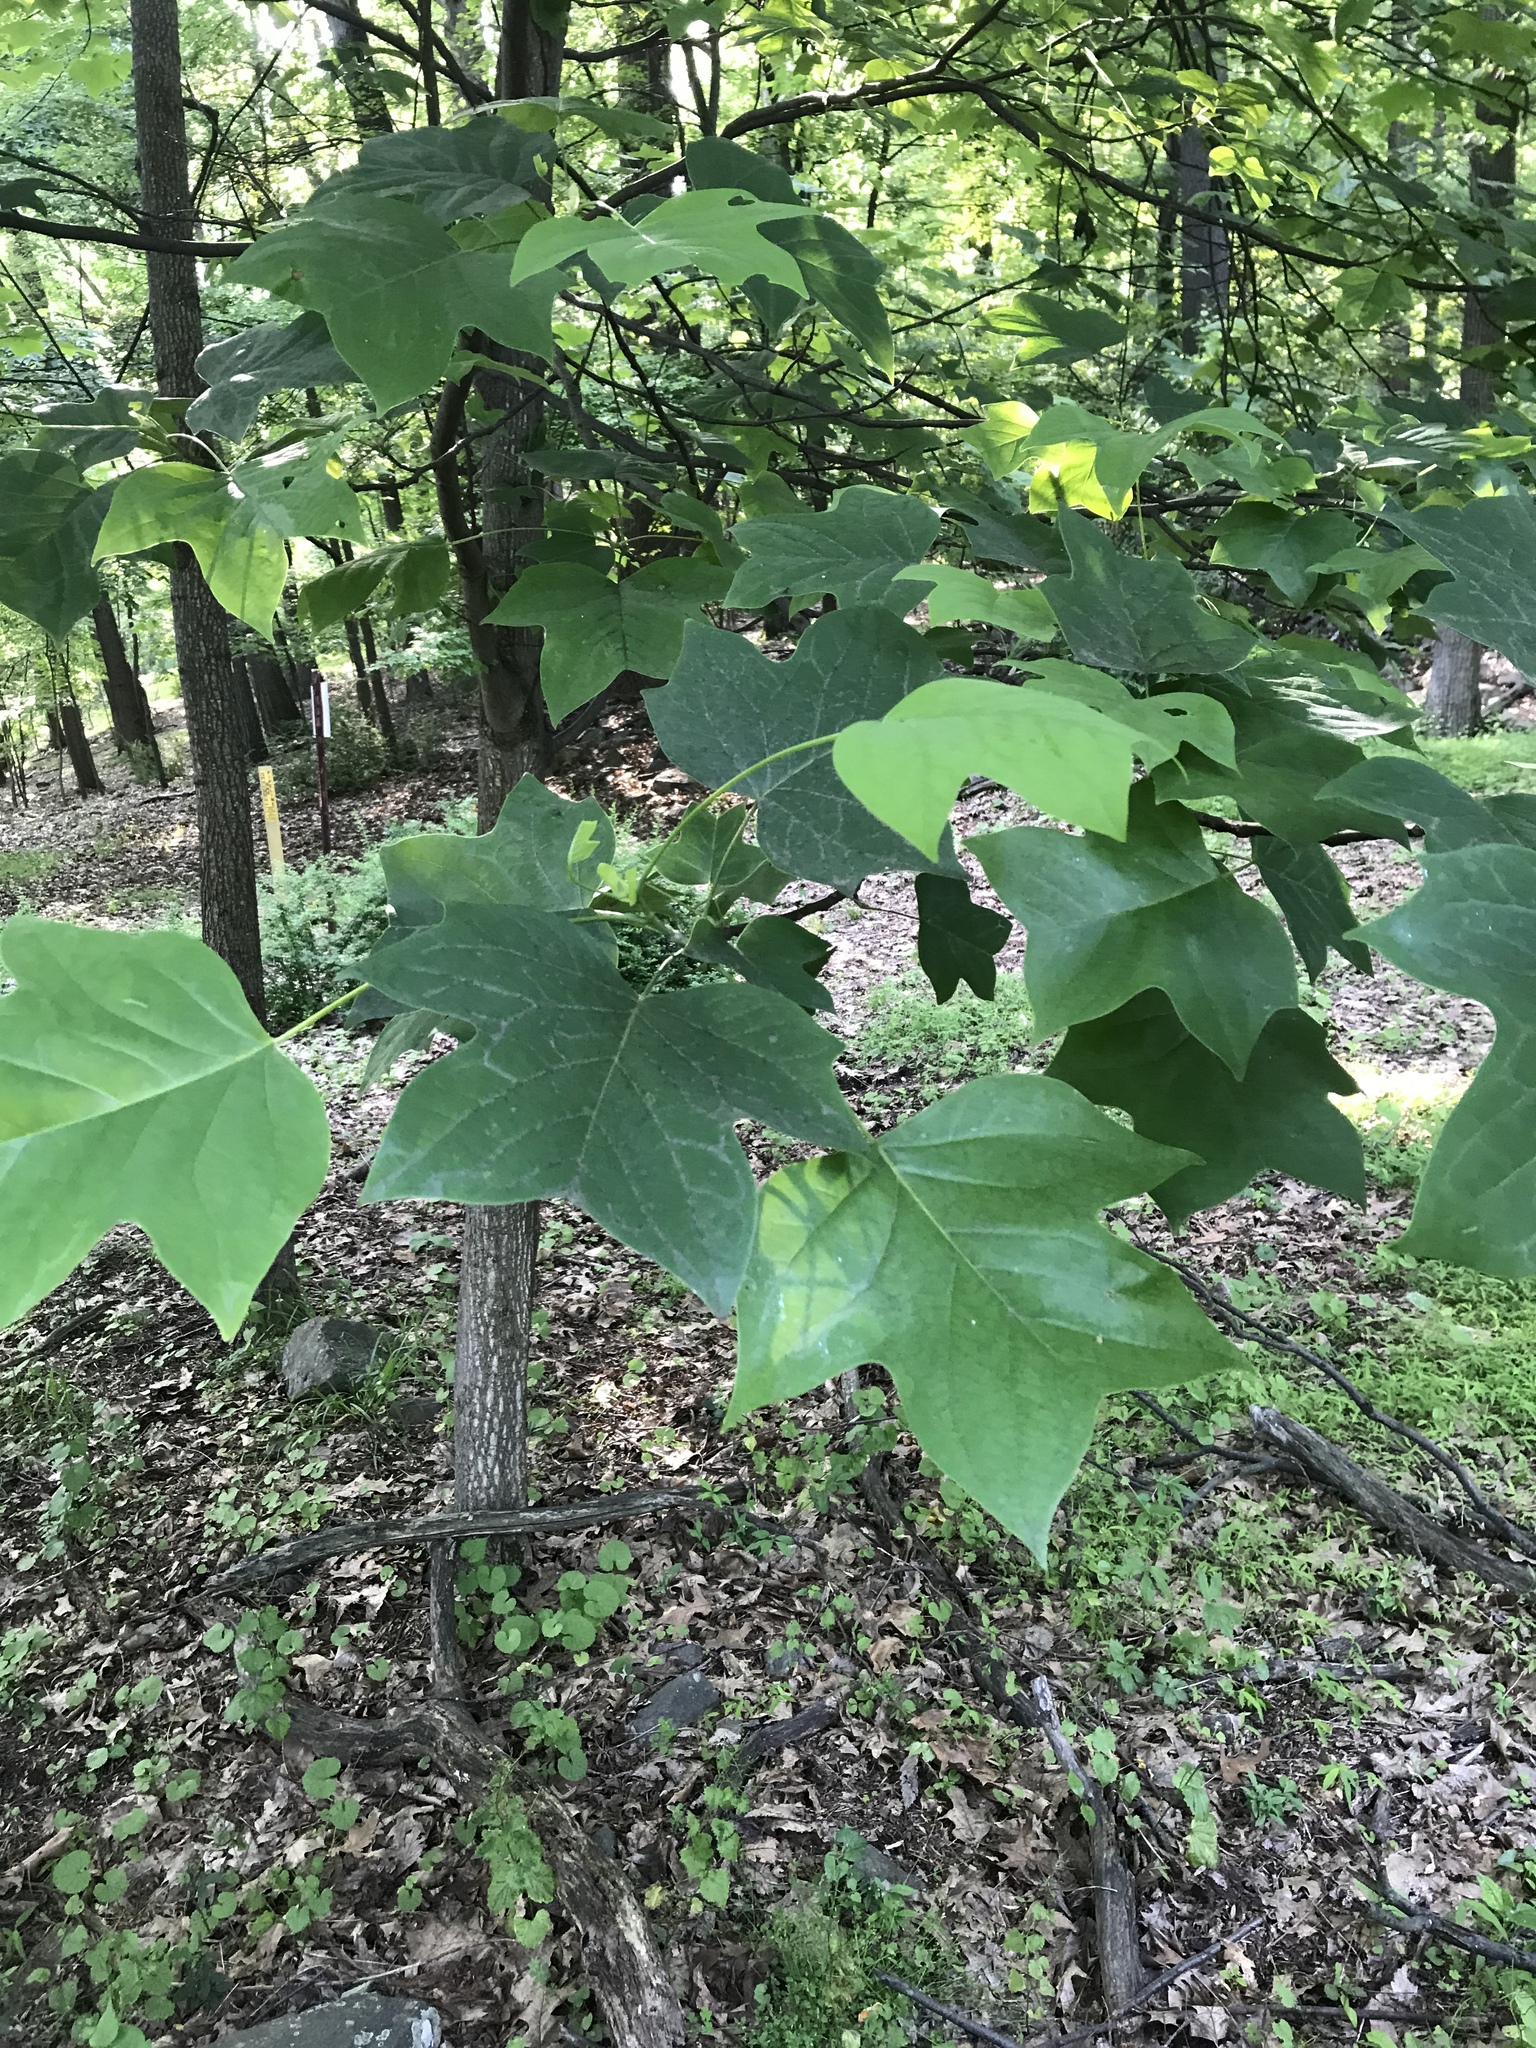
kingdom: Plantae
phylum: Tracheophyta
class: Magnoliopsida
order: Magnoliales
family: Magnoliaceae
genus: Liriodendron
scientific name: Liriodendron tulipifera
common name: Tulip tree
